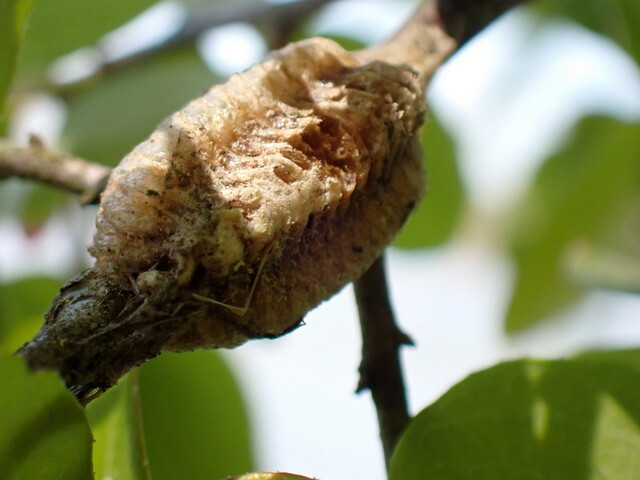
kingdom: Animalia
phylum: Arthropoda
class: Insecta
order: Mantodea
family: Mantidae
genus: Stagmomantis
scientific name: Stagmomantis carolina
